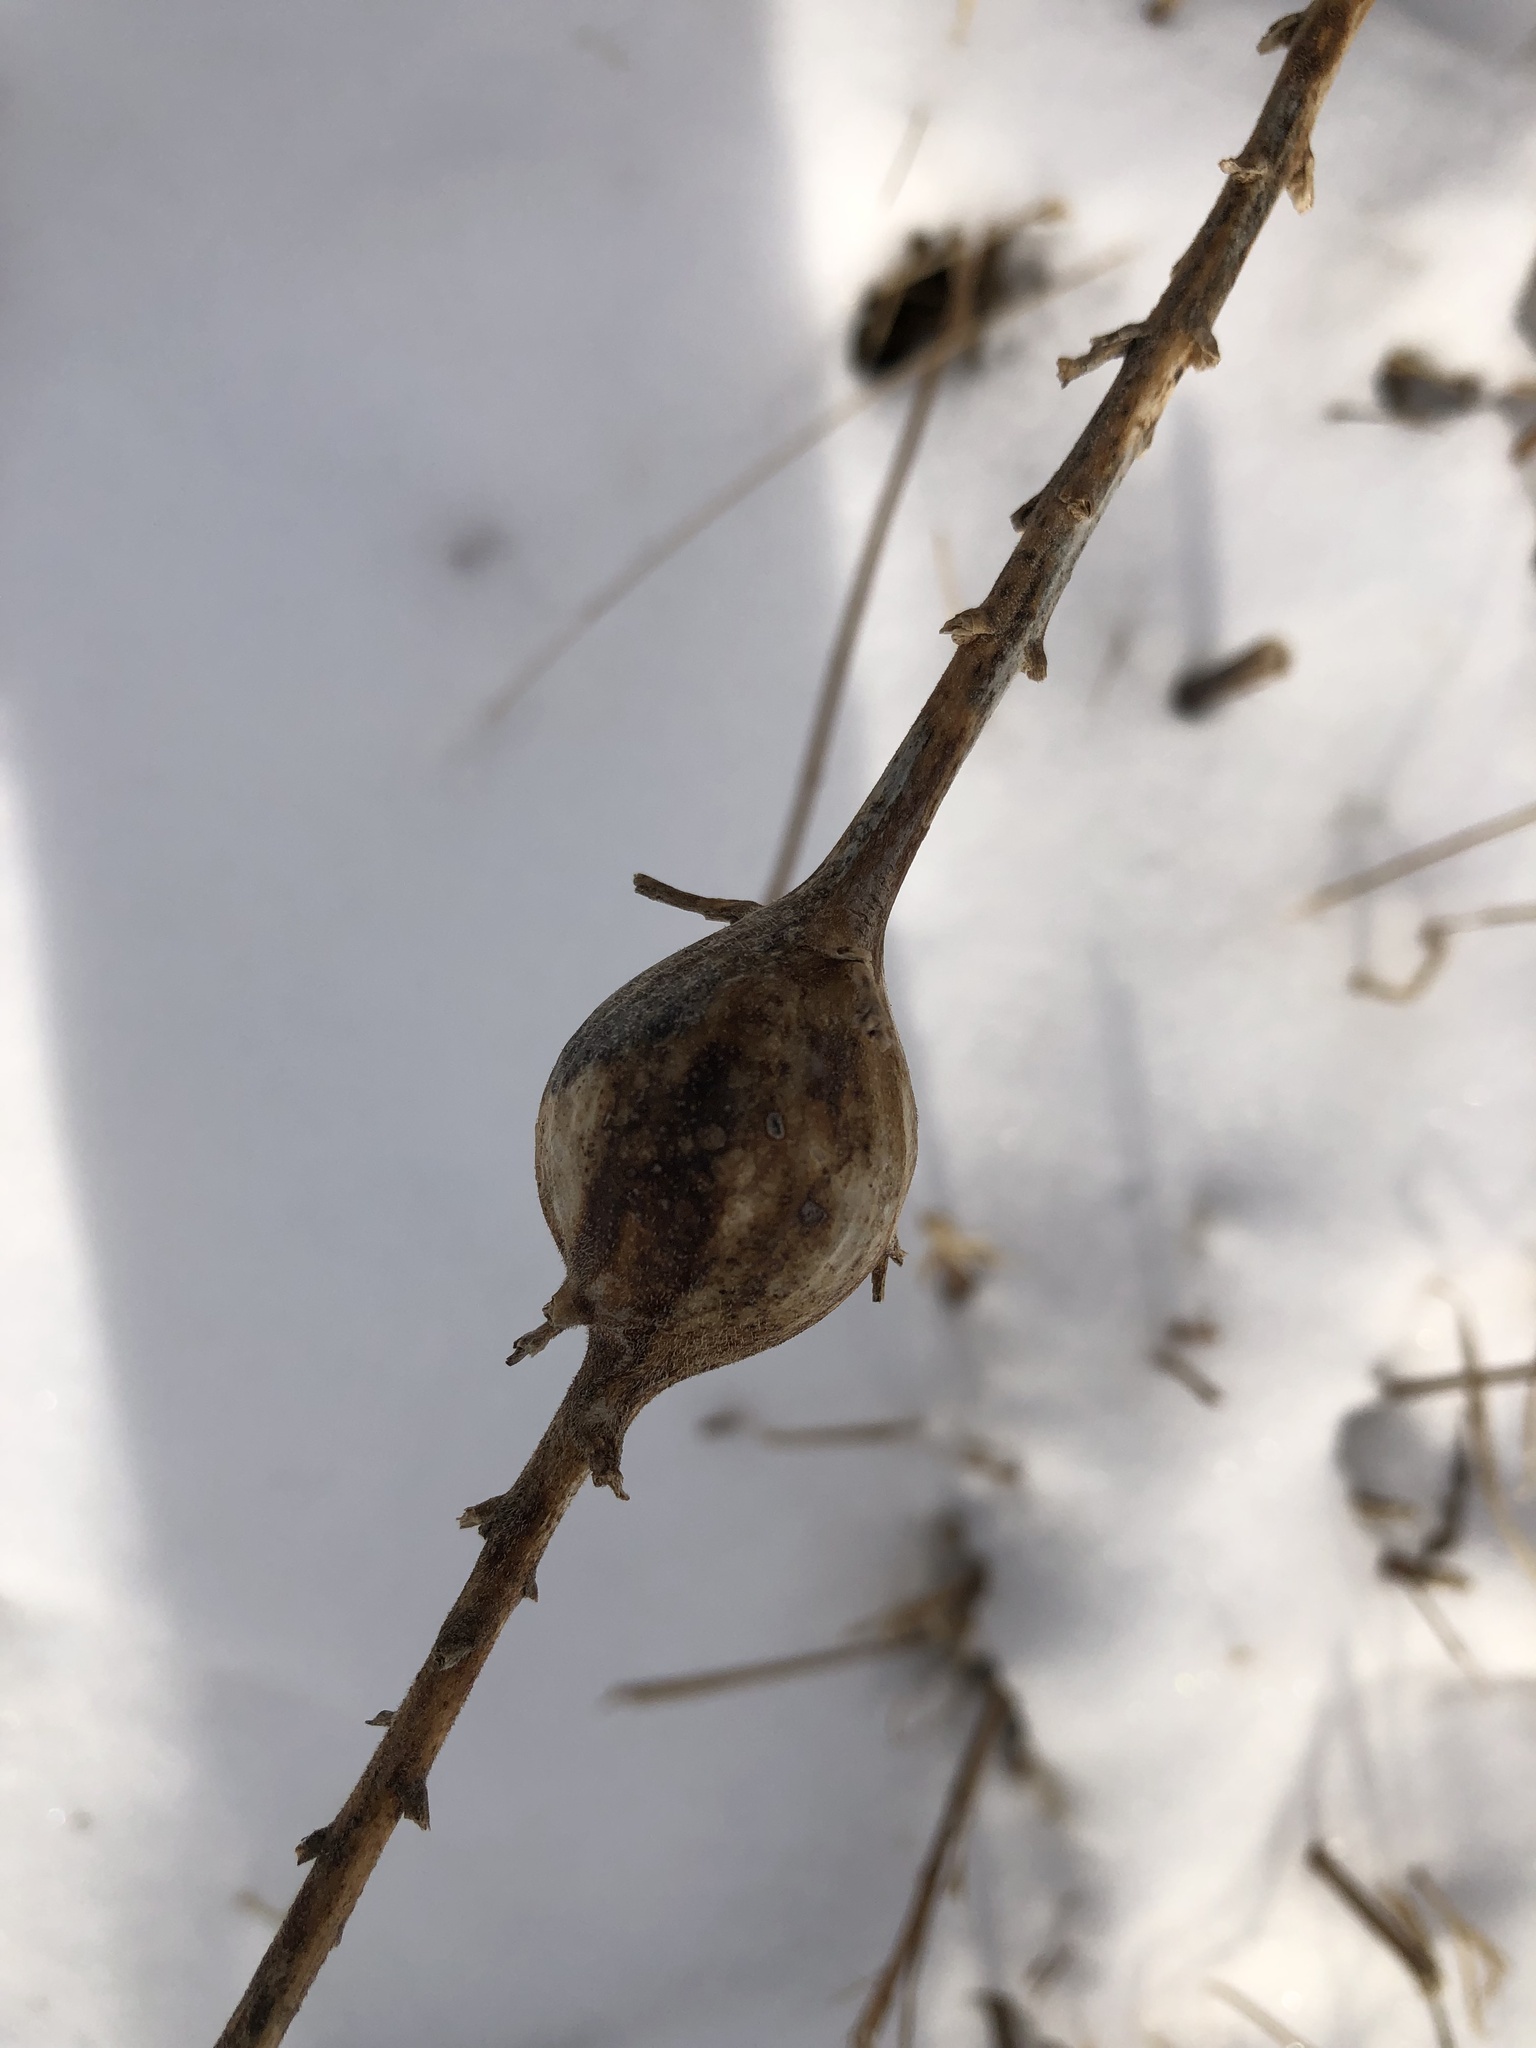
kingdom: Animalia
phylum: Arthropoda
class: Insecta
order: Diptera
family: Tephritidae
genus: Eurosta
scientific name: Eurosta solidaginis
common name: Goldenrod gall fly
